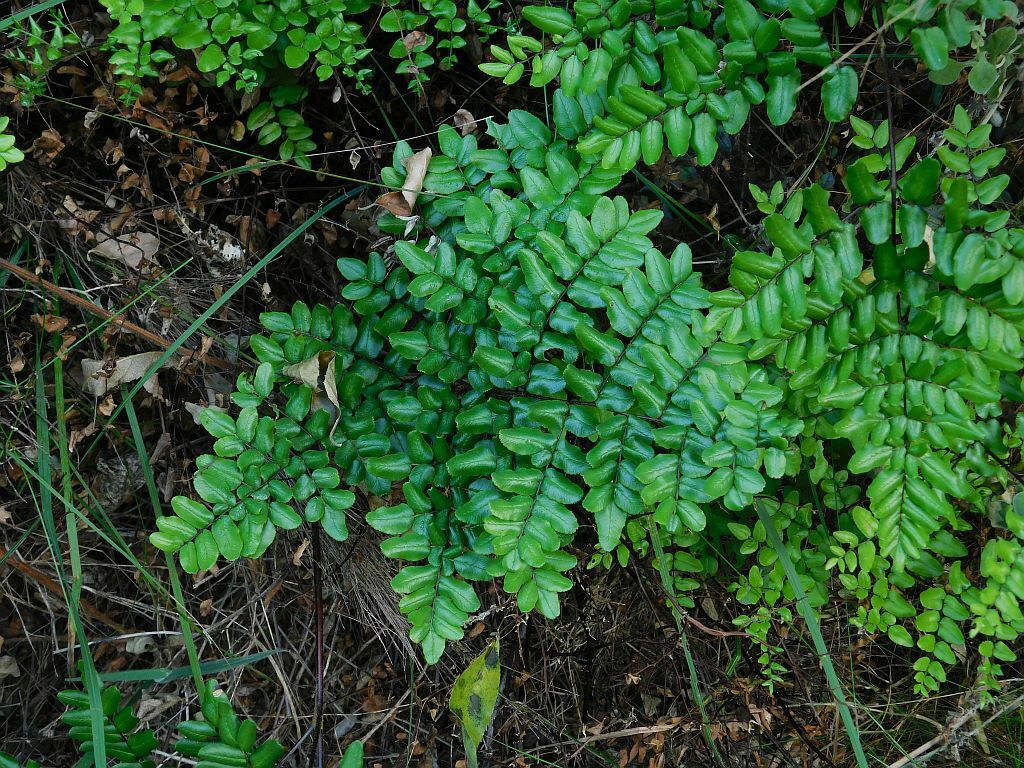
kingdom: Plantae
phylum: Tracheophyta
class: Polypodiopsida
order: Polypodiales
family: Pteridaceae
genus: Pellaea
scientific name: Pellaea pteroides
